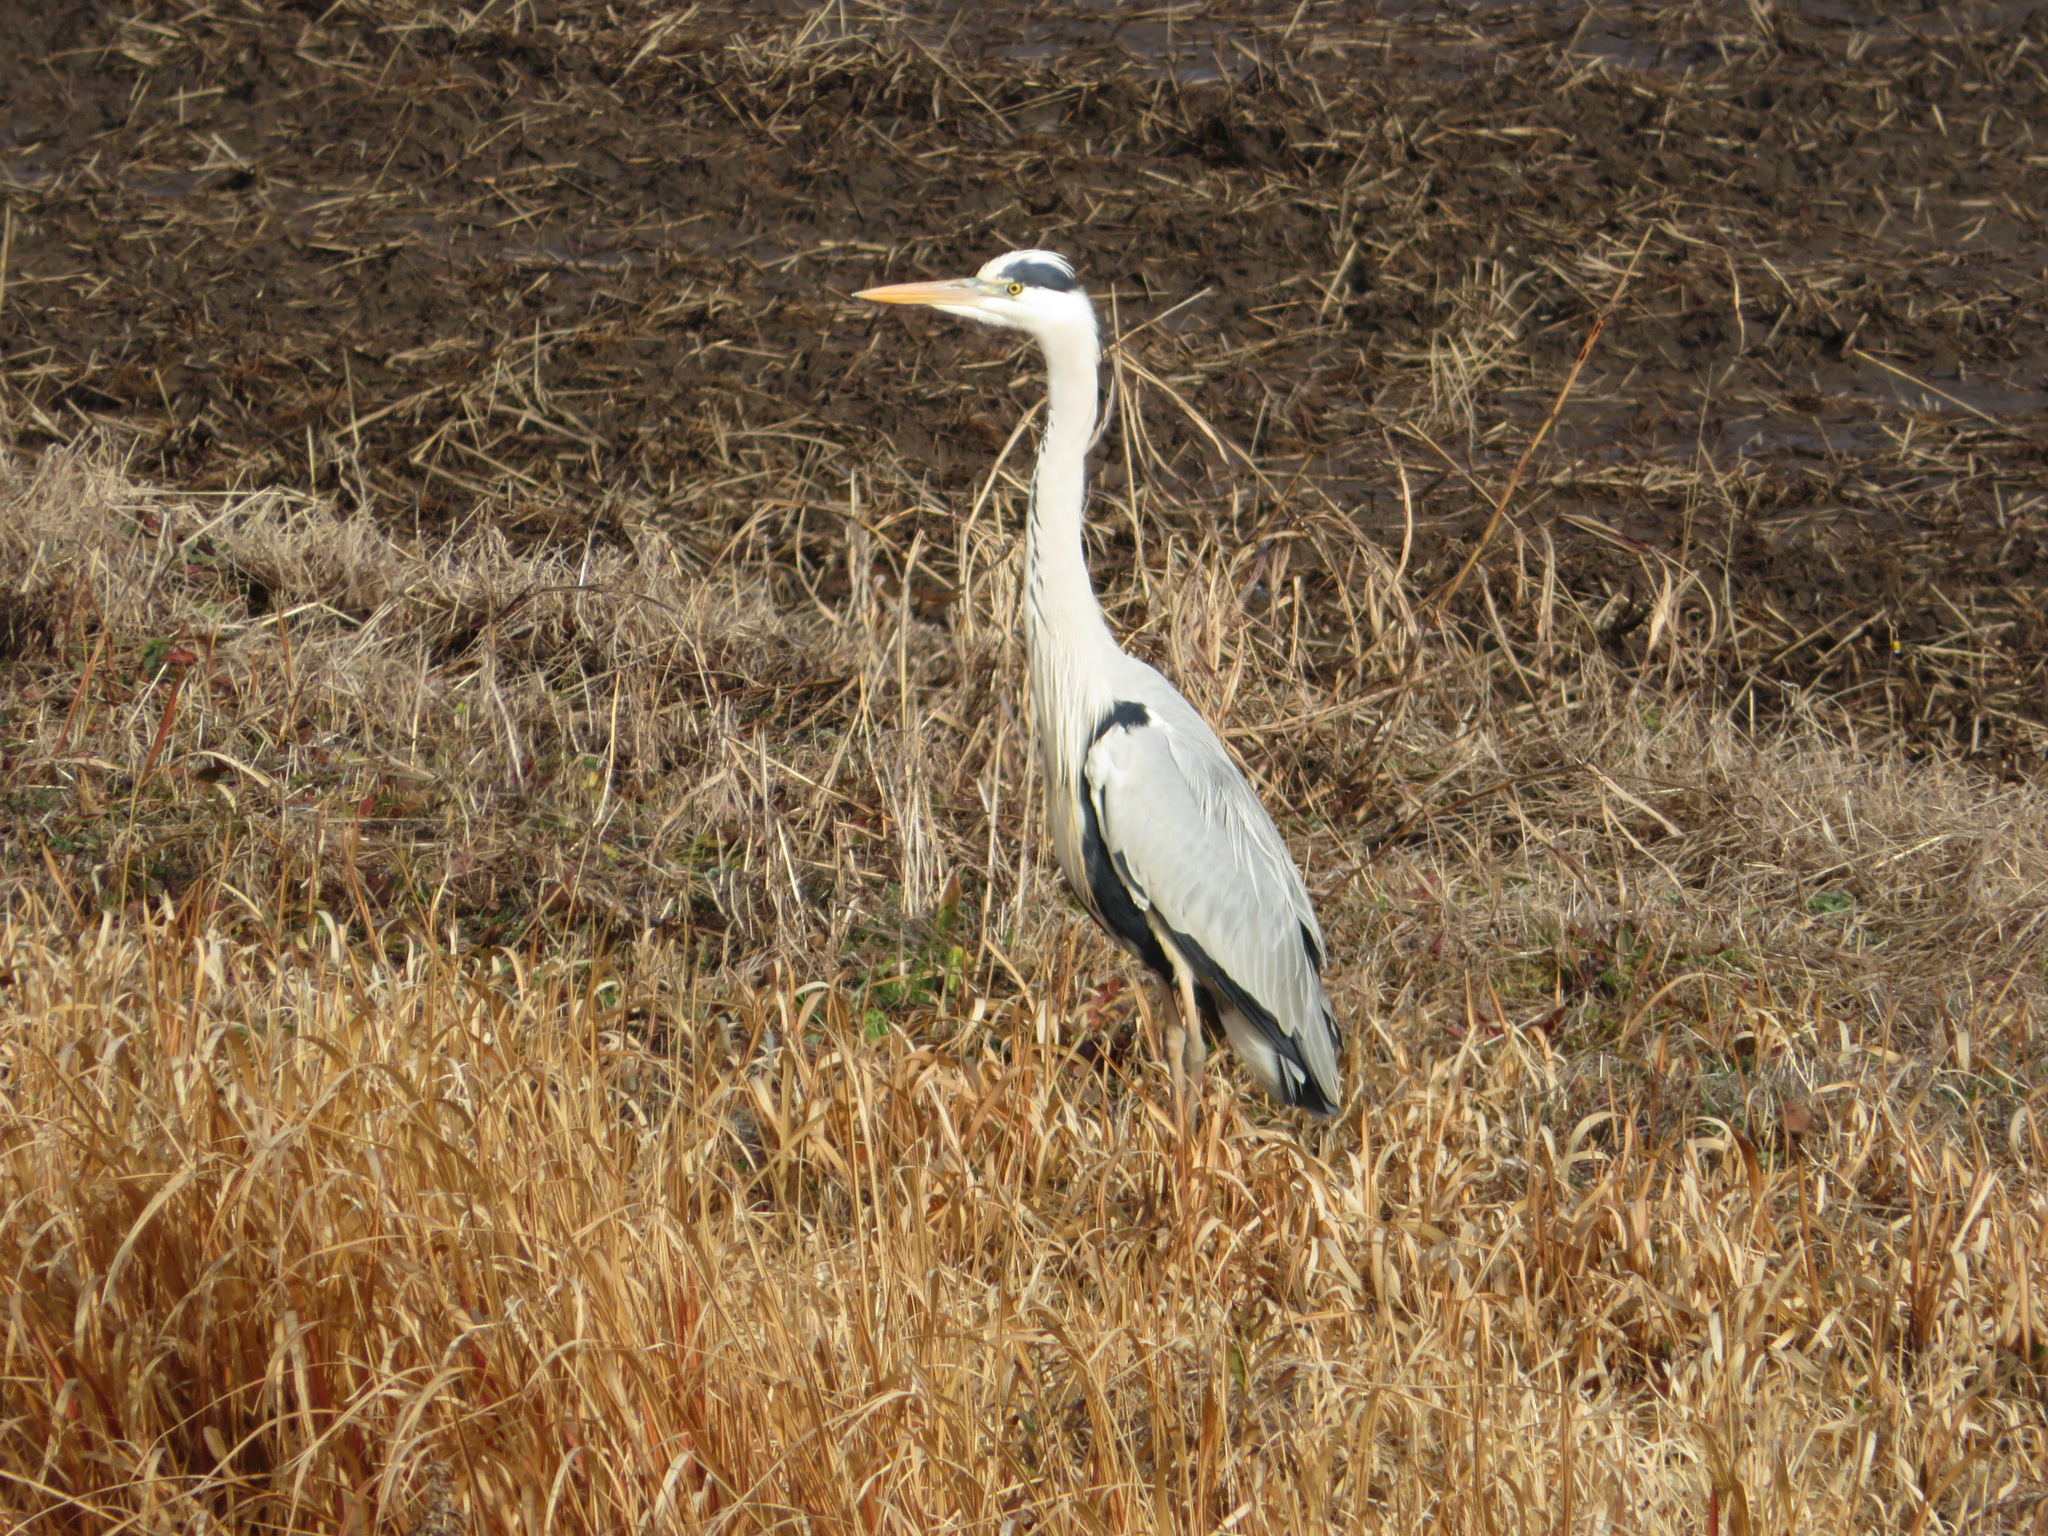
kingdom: Animalia
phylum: Chordata
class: Aves
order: Pelecaniformes
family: Ardeidae
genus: Ardea
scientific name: Ardea cinerea
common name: Grey heron
